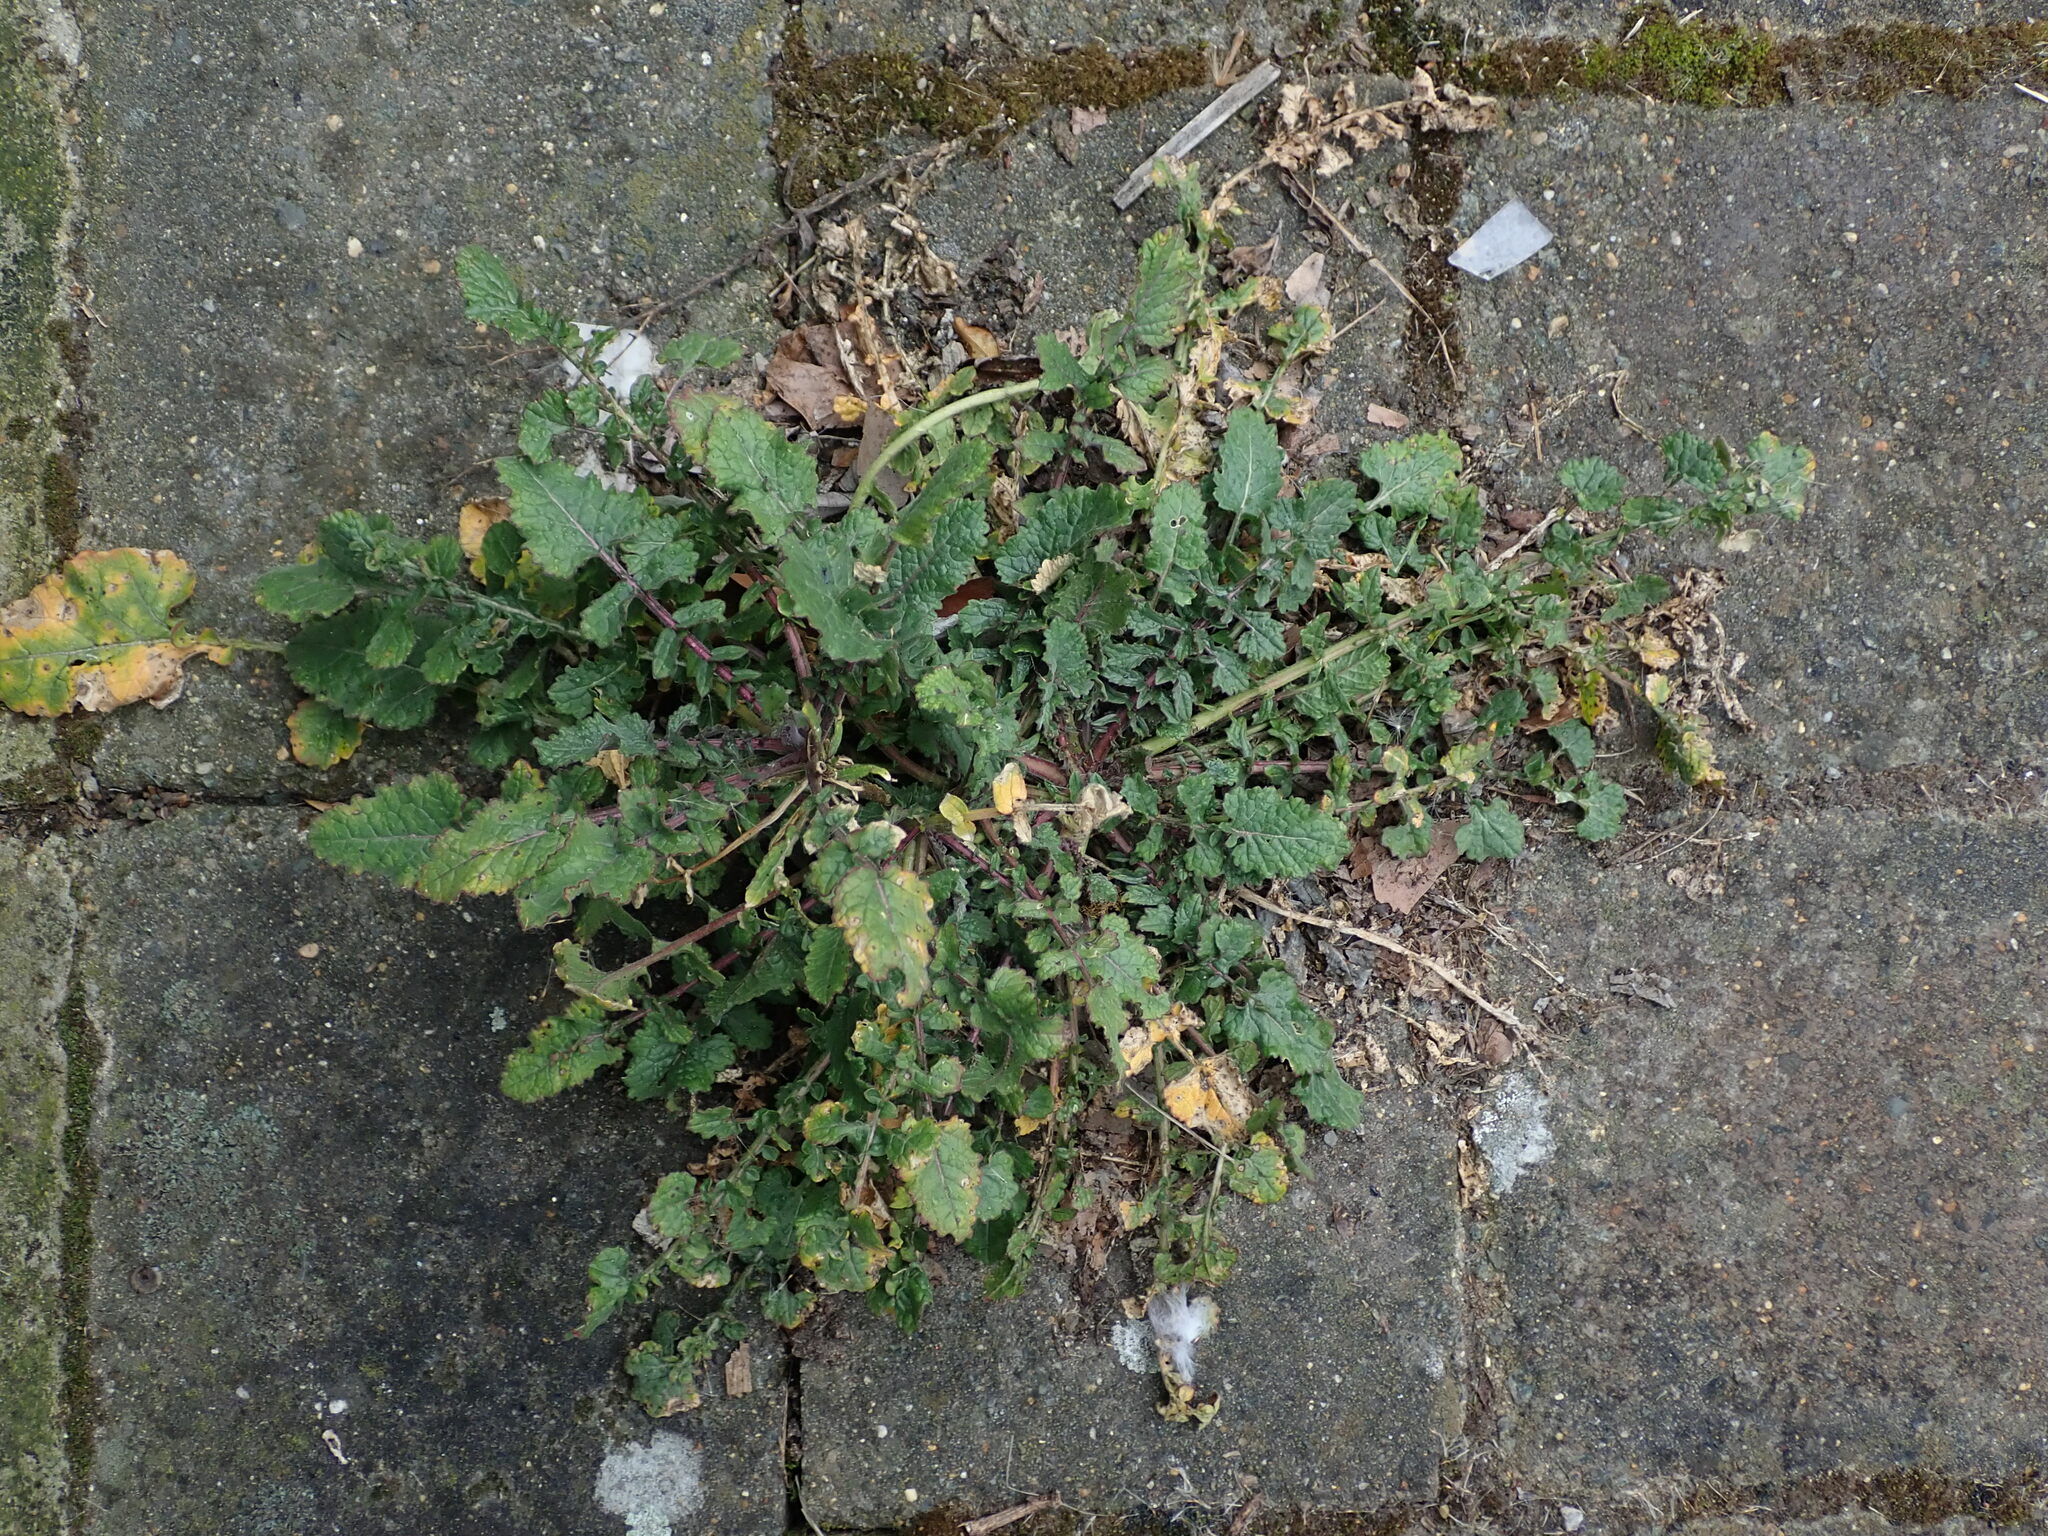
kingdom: Plantae
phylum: Tracheophyta
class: Magnoliopsida
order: Brassicales
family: Brassicaceae
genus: Hirschfeldia
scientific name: Hirschfeldia incana
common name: Hoary mustard
